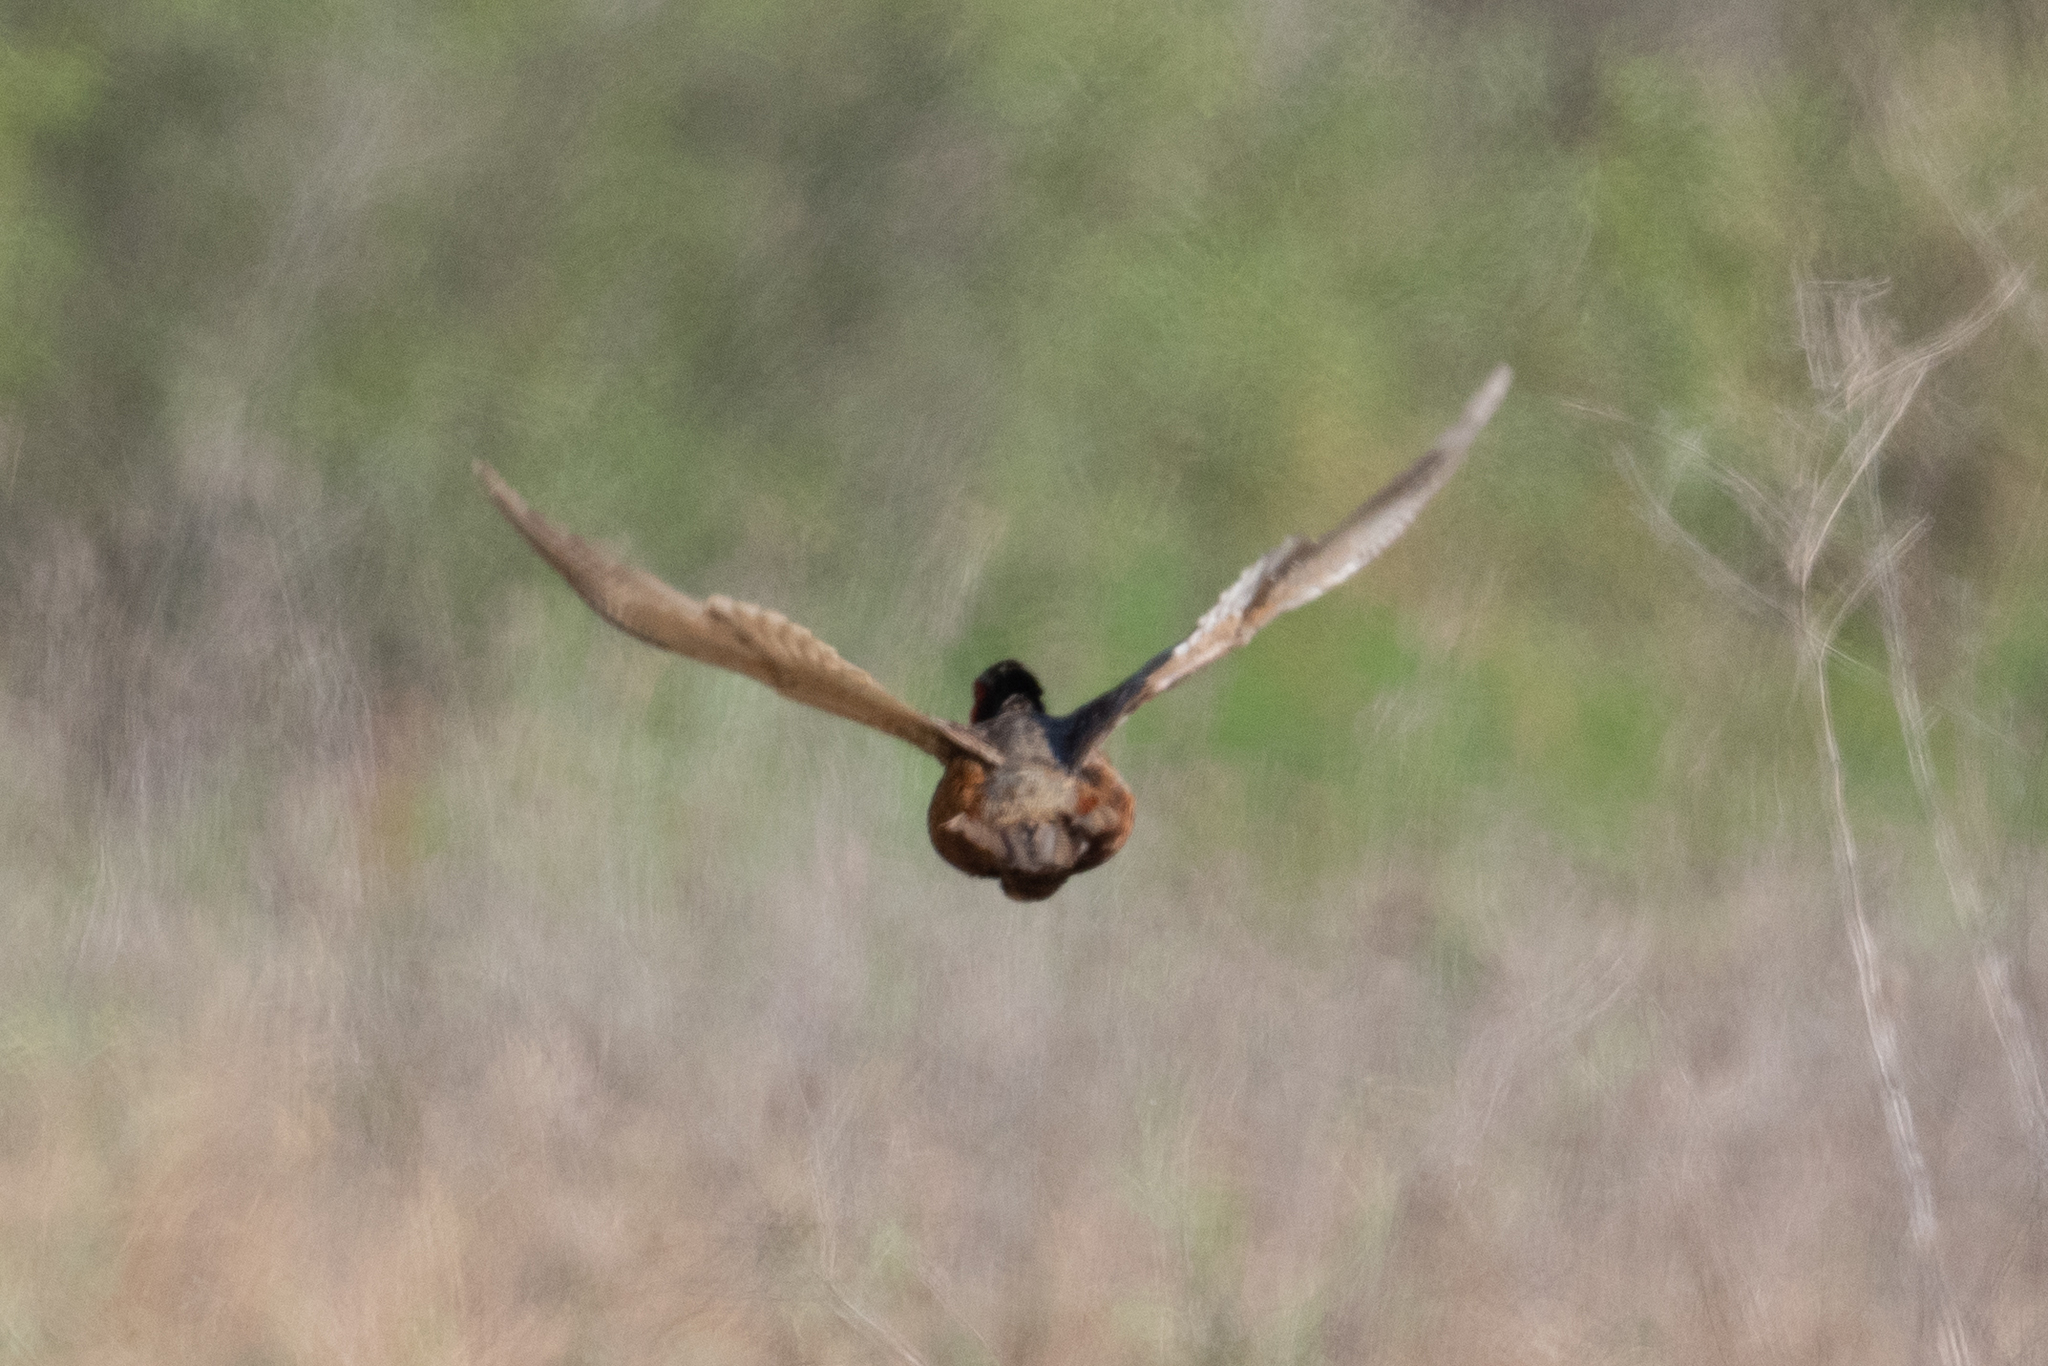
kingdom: Animalia
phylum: Chordata
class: Aves
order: Galliformes
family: Phasianidae
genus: Phasianus
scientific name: Phasianus colchicus
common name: Common pheasant
